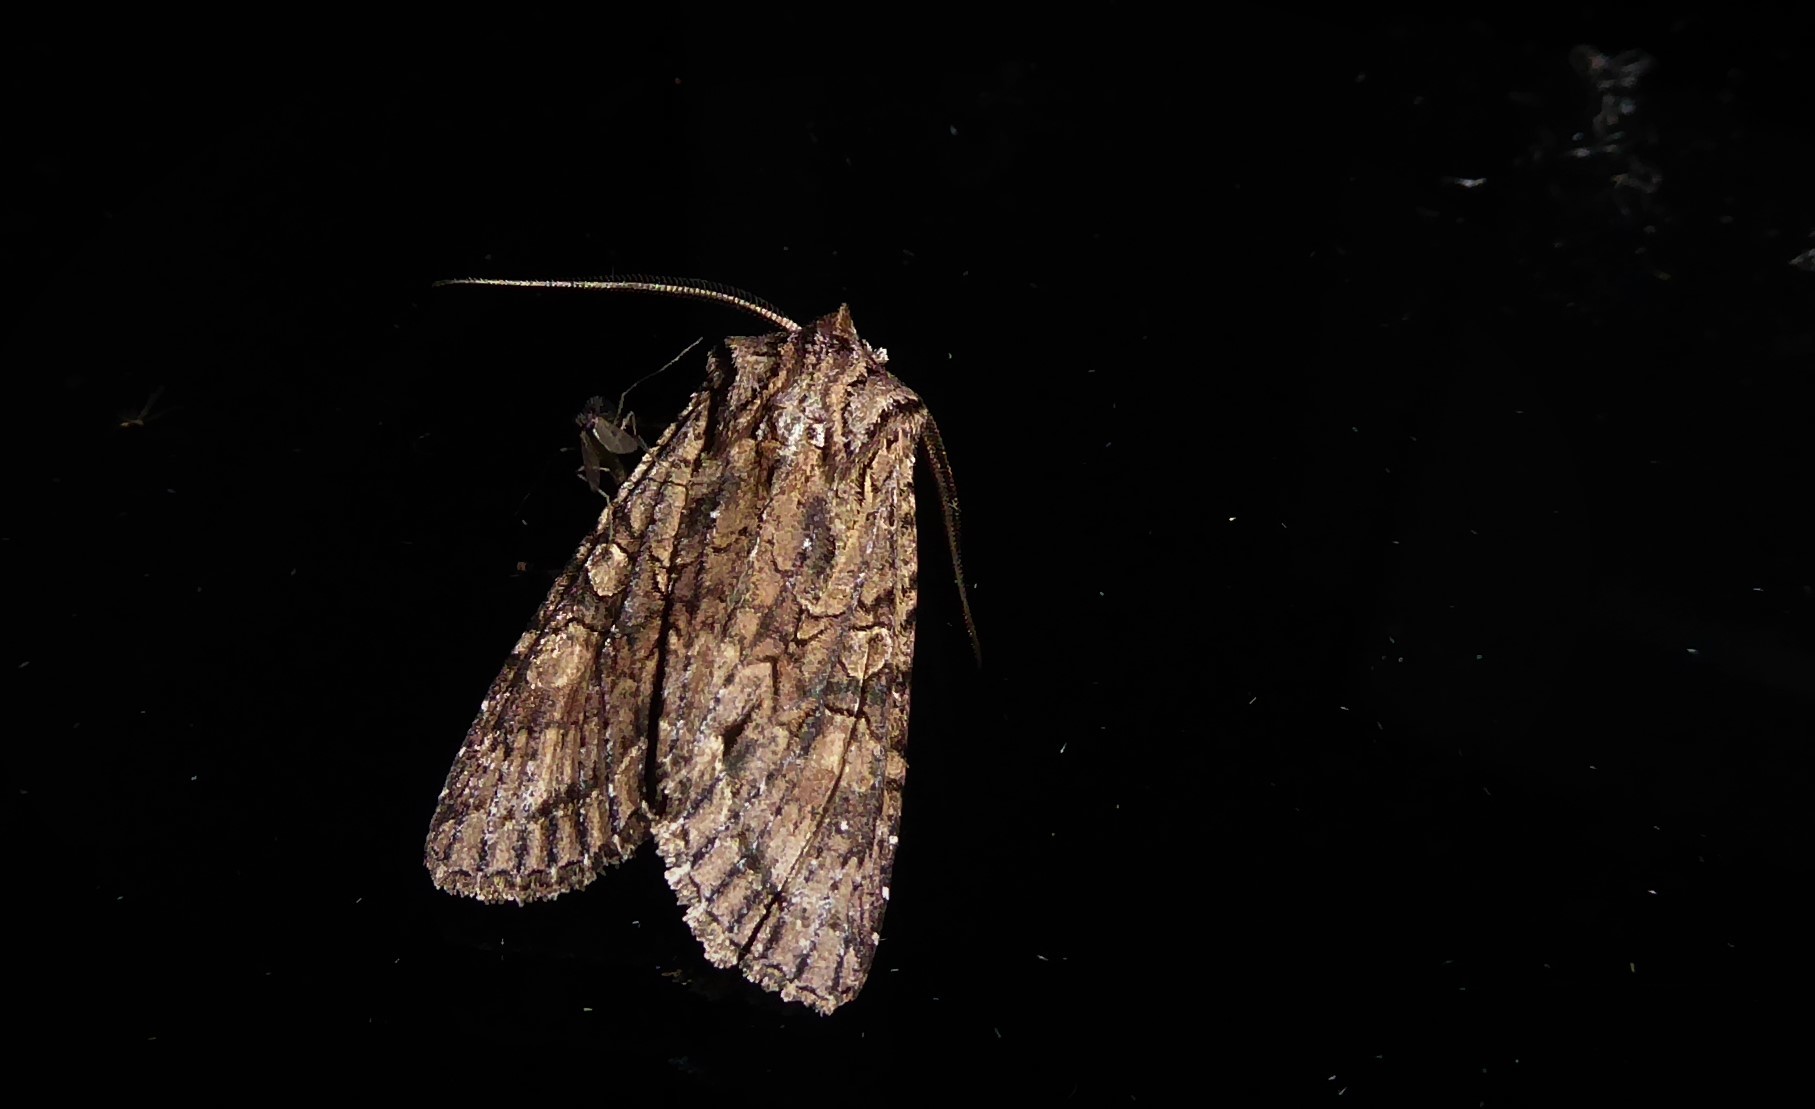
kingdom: Animalia
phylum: Arthropoda
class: Insecta
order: Lepidoptera
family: Noctuidae
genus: Ichneutica
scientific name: Ichneutica mutans
